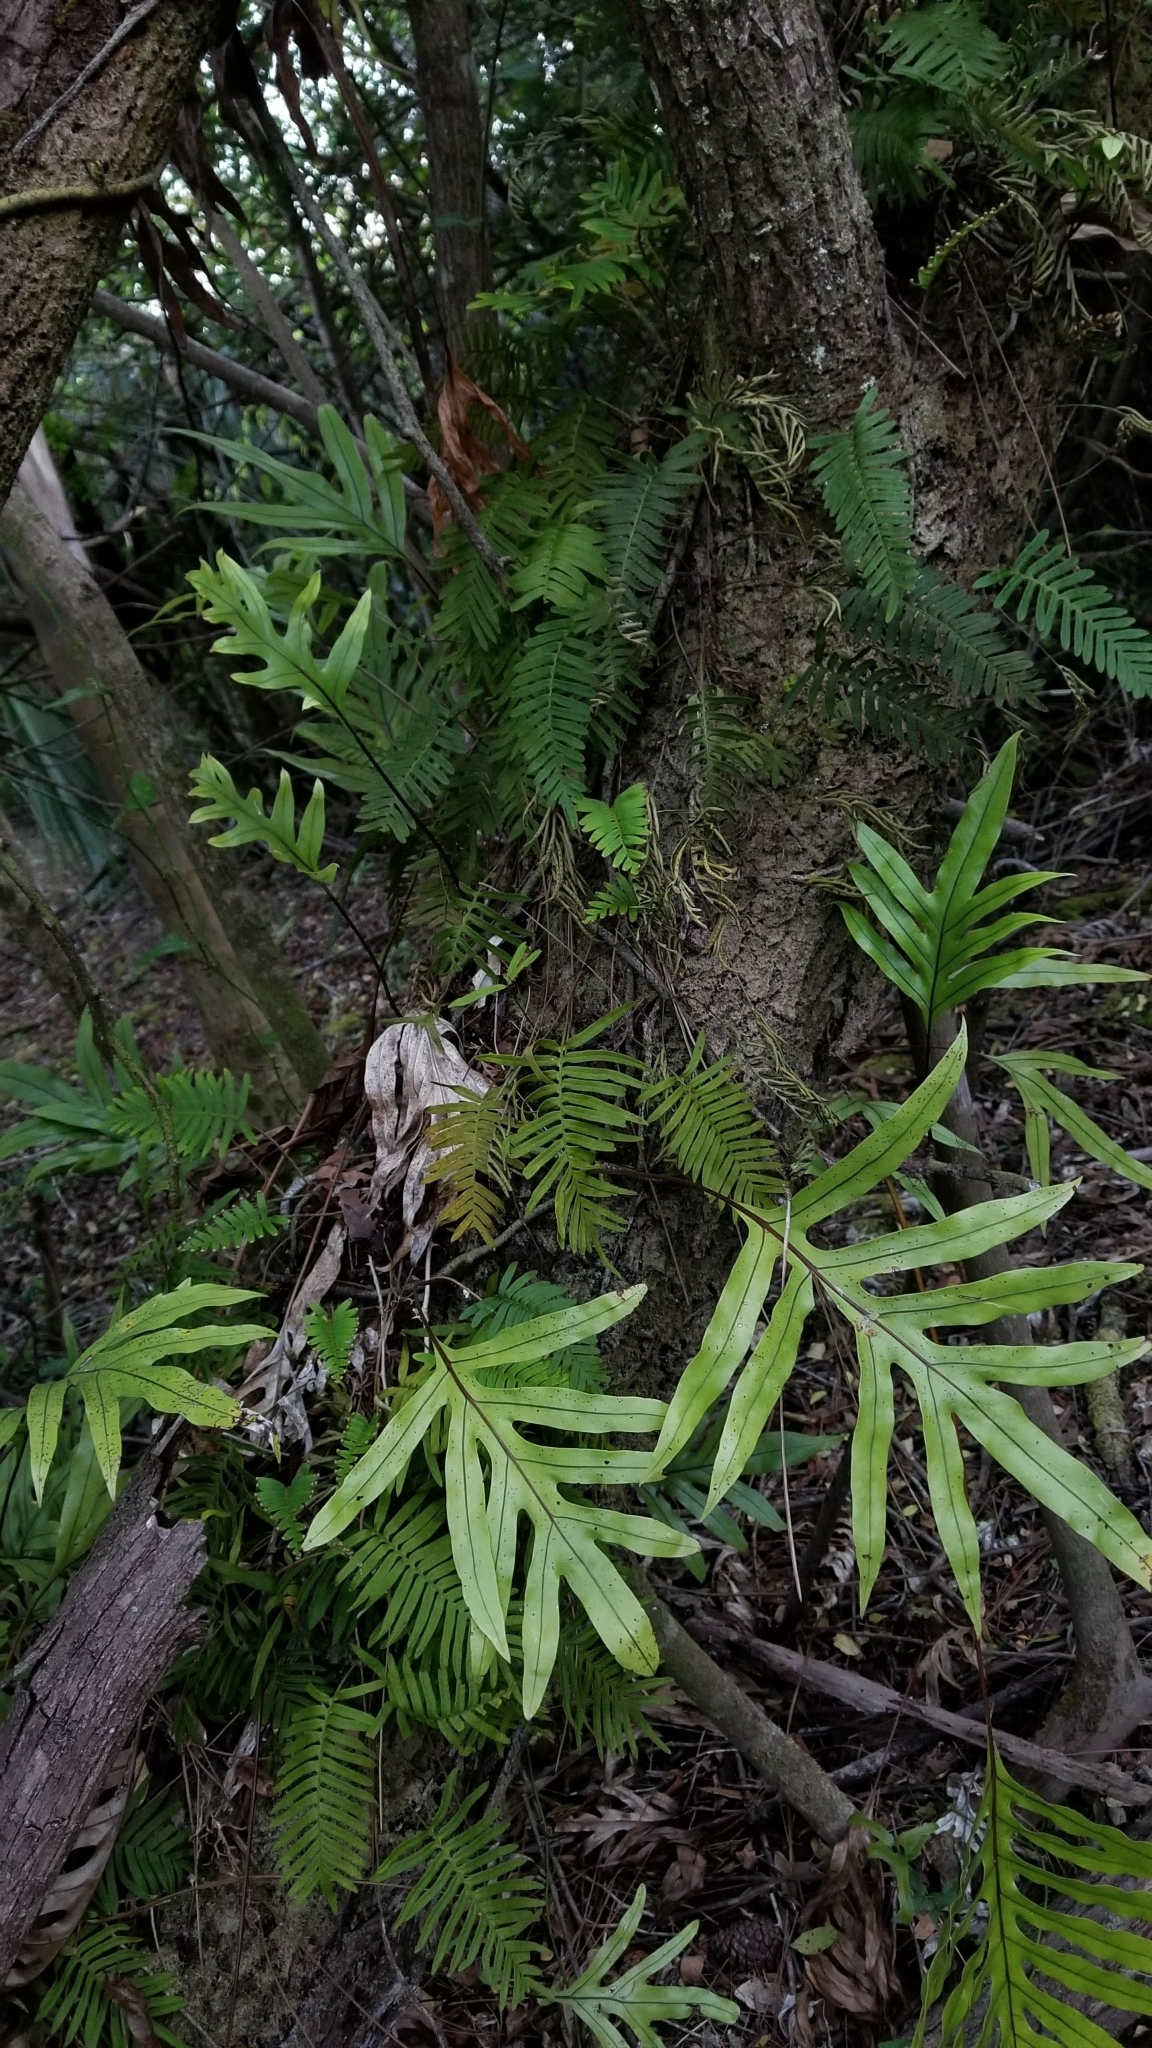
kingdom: Plantae
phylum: Tracheophyta
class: Polypodiopsida
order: Polypodiales
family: Polypodiaceae
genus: Microsorum
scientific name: Microsorum grossum
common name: Musk fern
